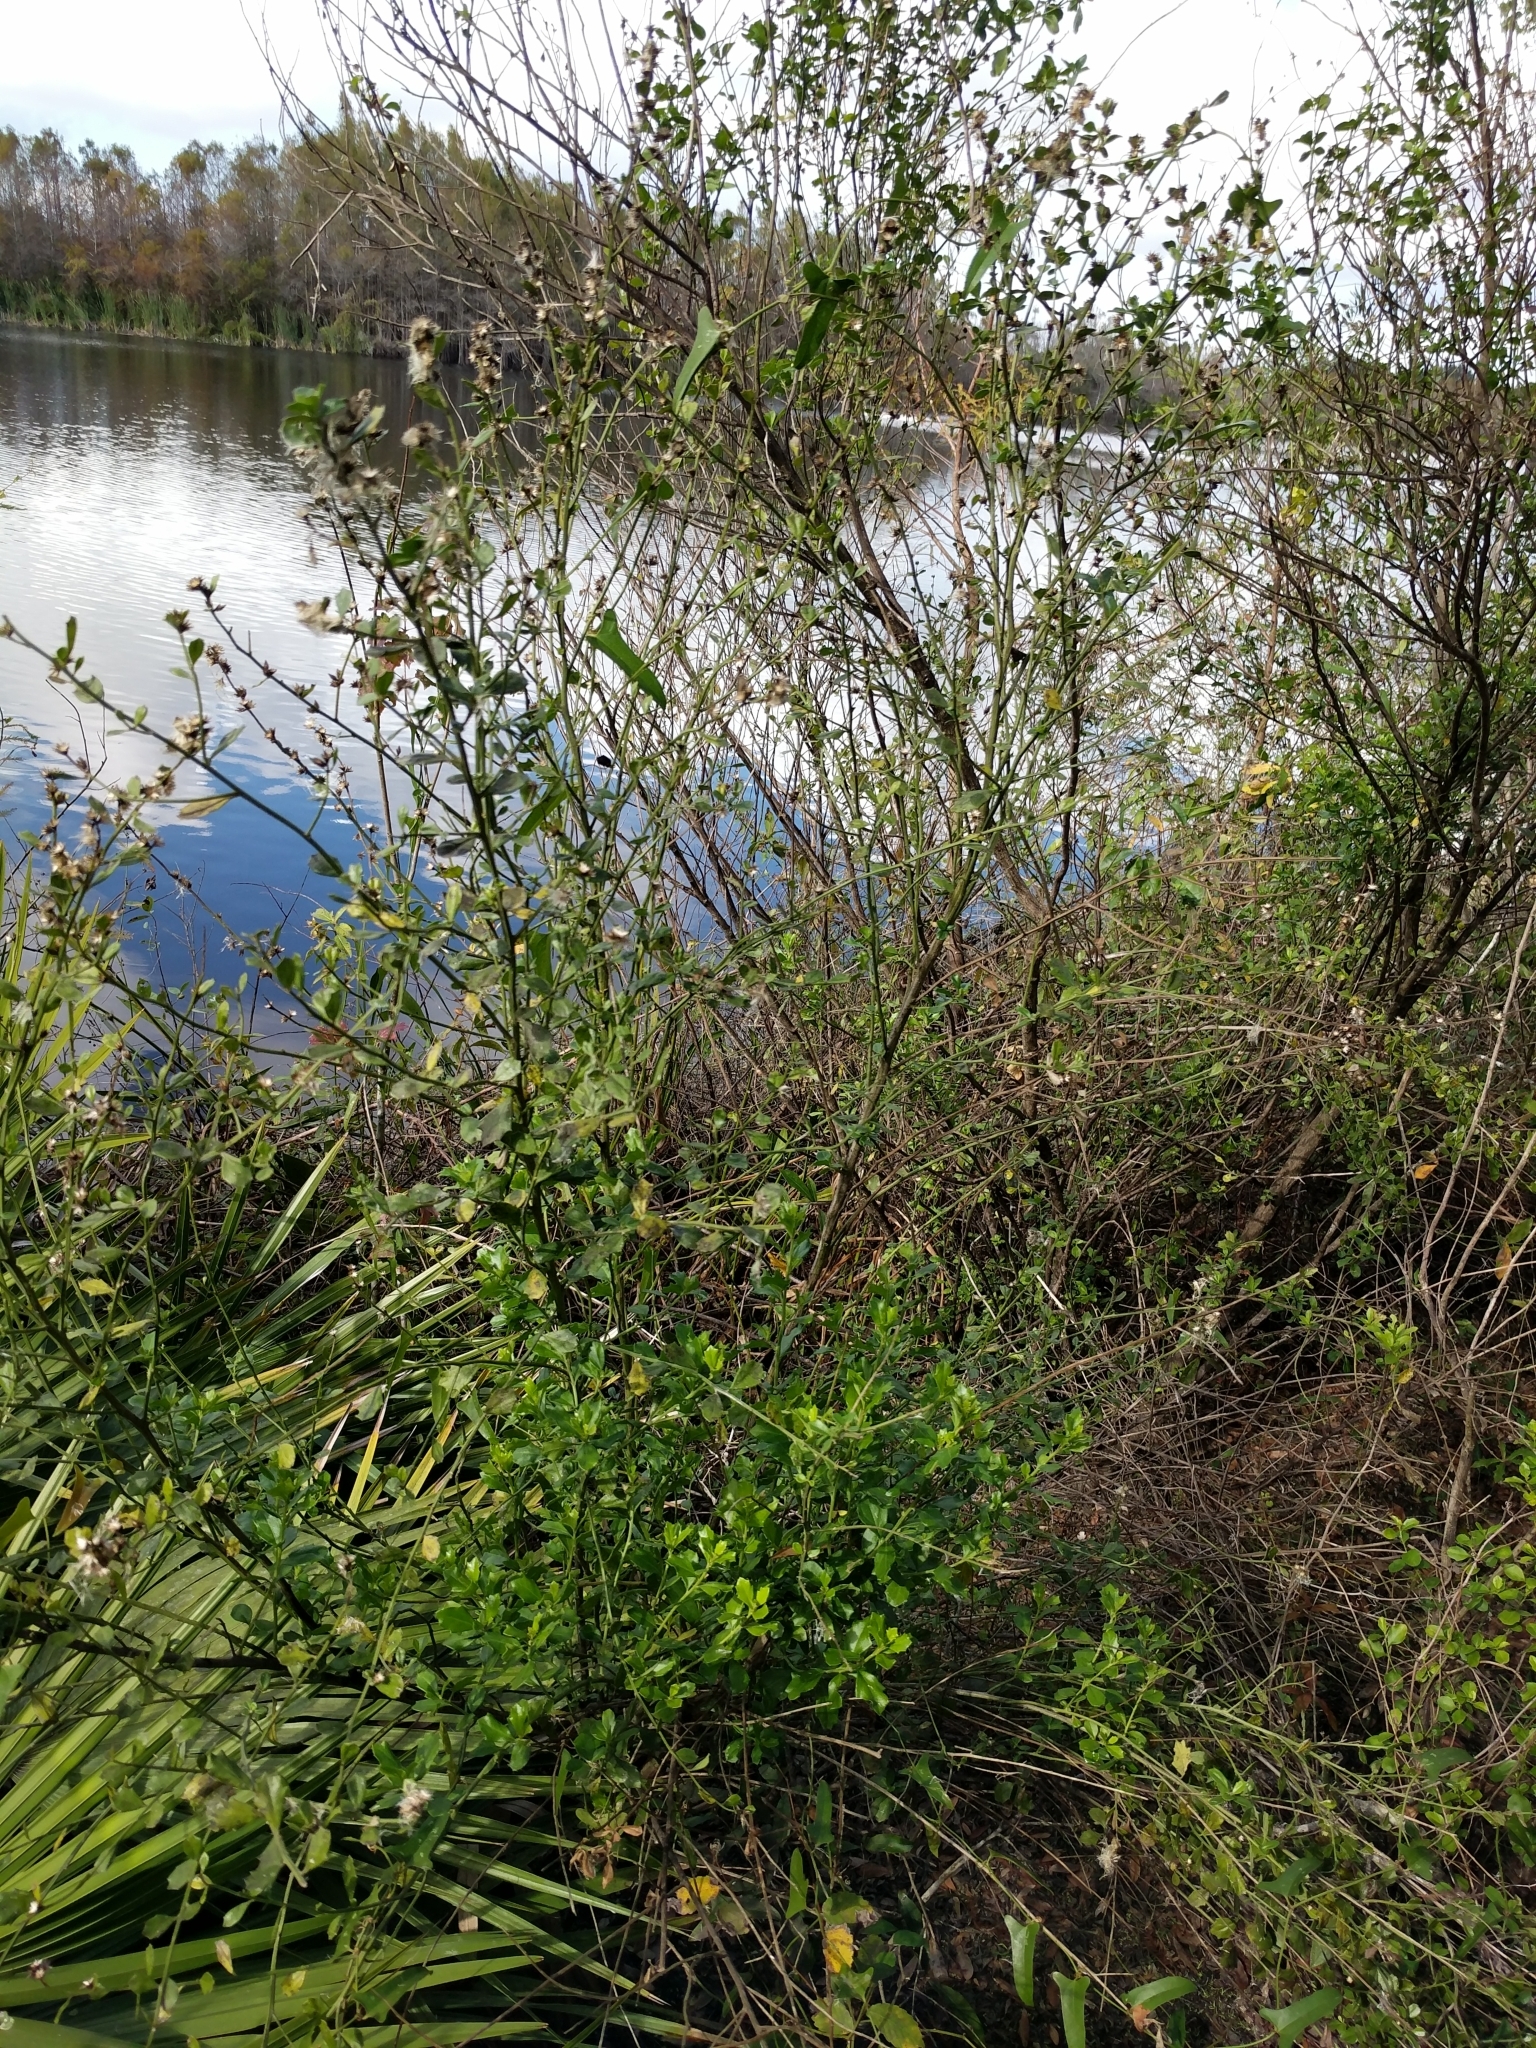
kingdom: Plantae
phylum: Tracheophyta
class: Magnoliopsida
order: Asterales
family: Asteraceae
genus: Baccharis
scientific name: Baccharis glomeruliflora
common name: Silverling groundsel bush
